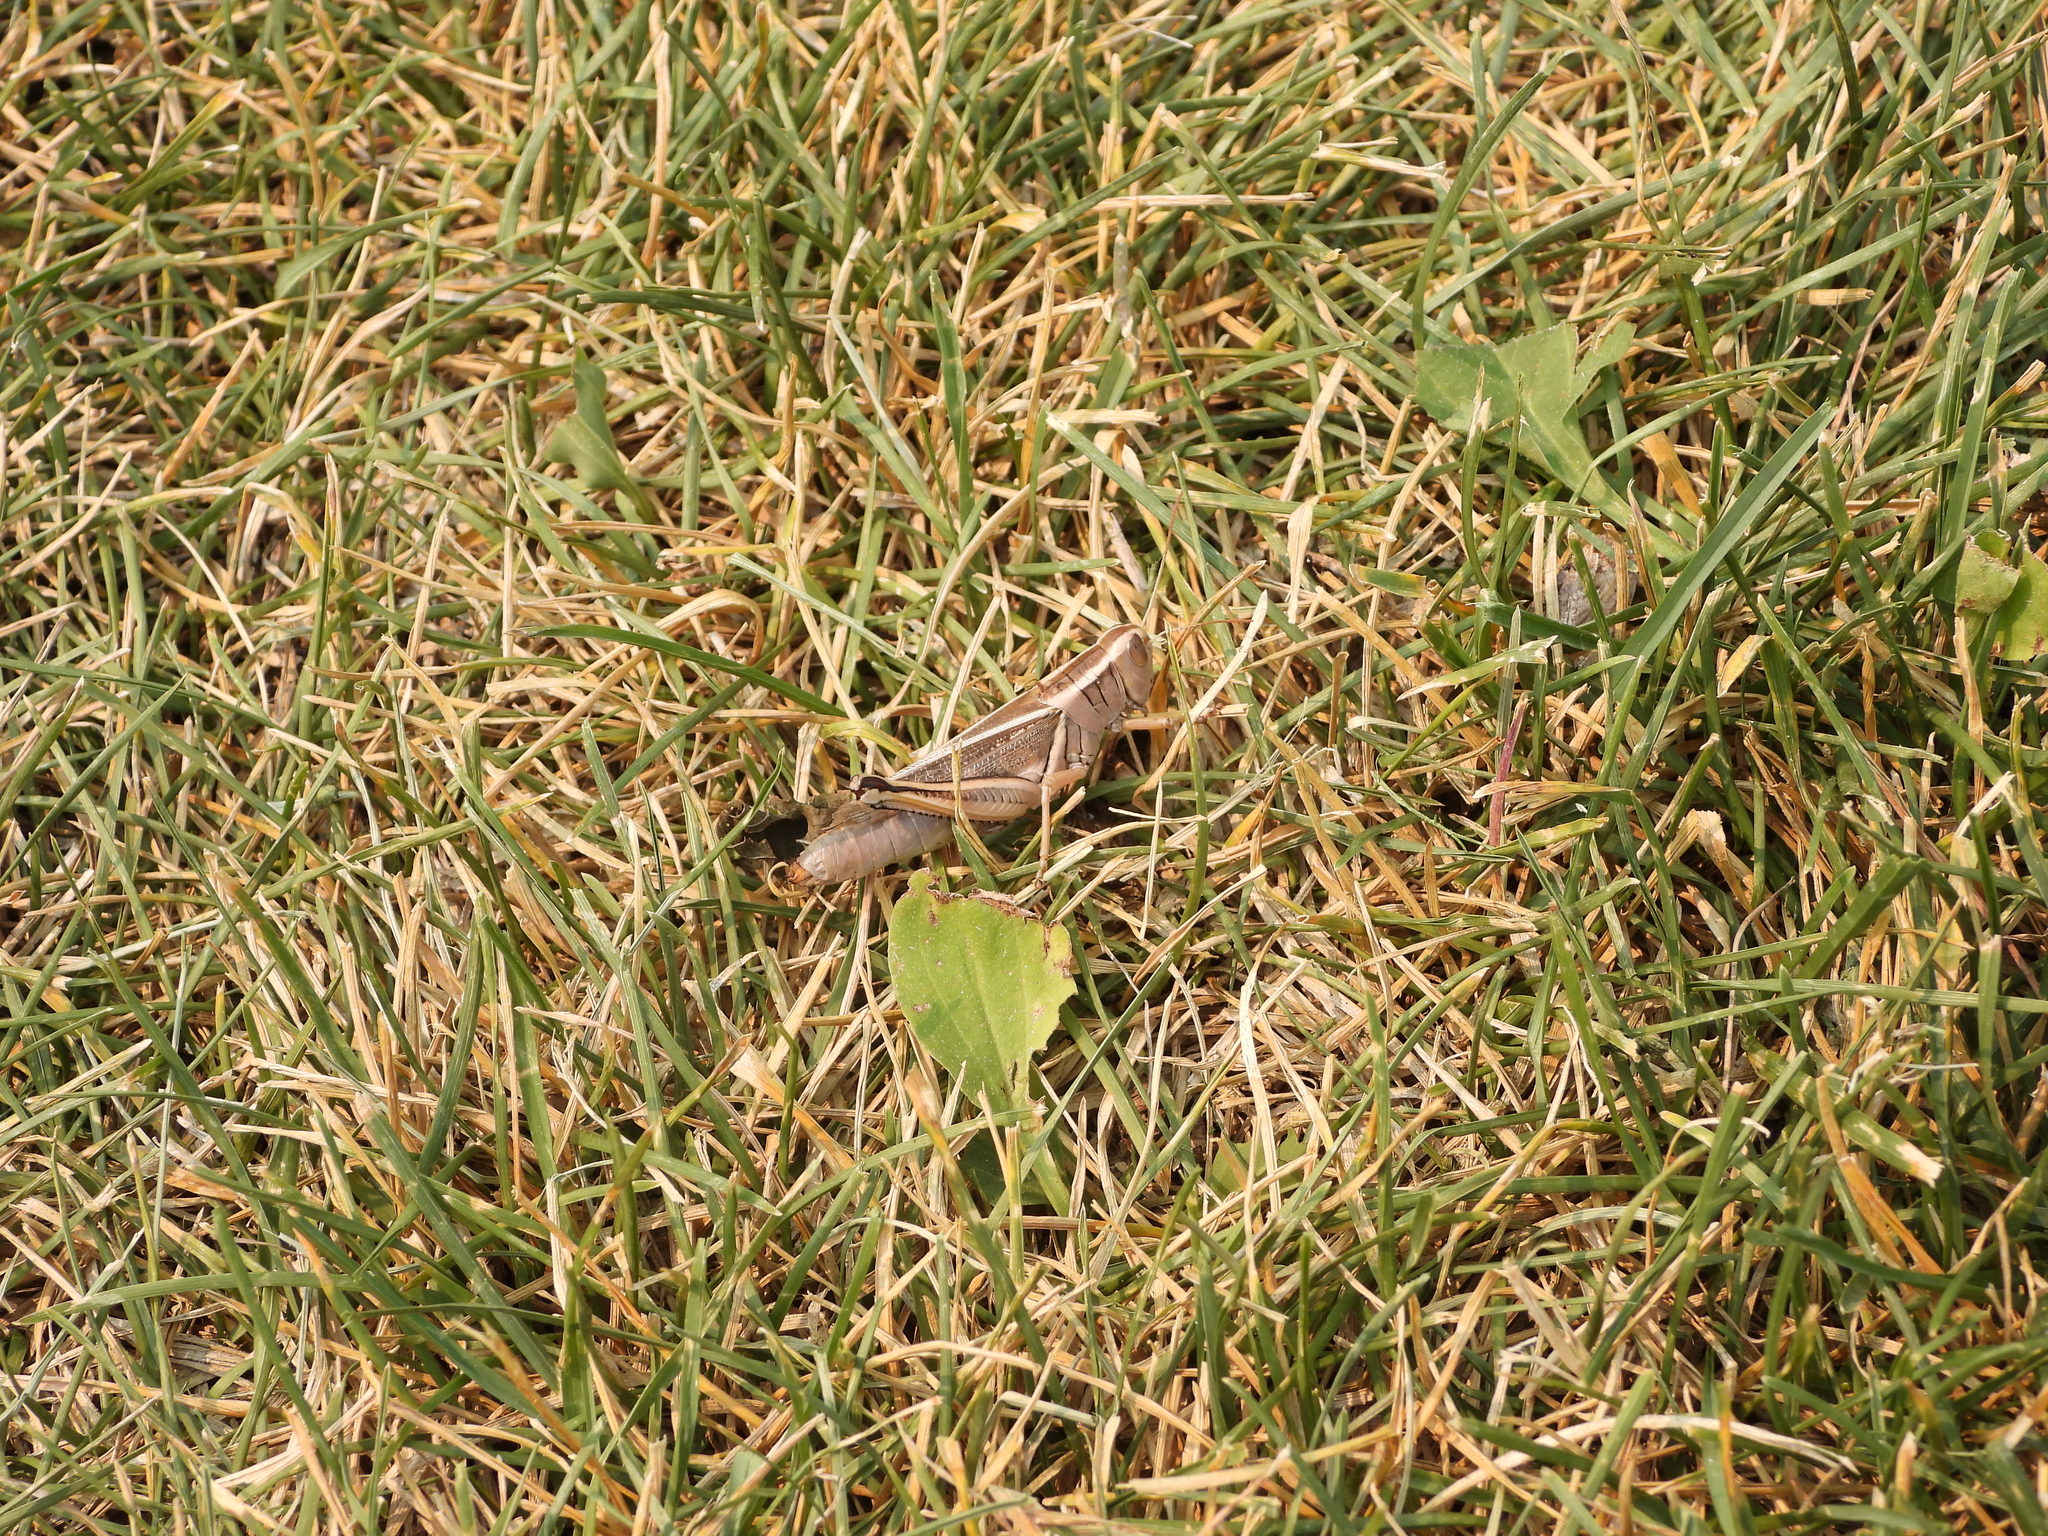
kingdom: Animalia
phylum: Arthropoda
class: Insecta
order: Orthoptera
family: Acrididae
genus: Melanoplus
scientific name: Melanoplus bivittatus
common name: Two-striped grasshopper
